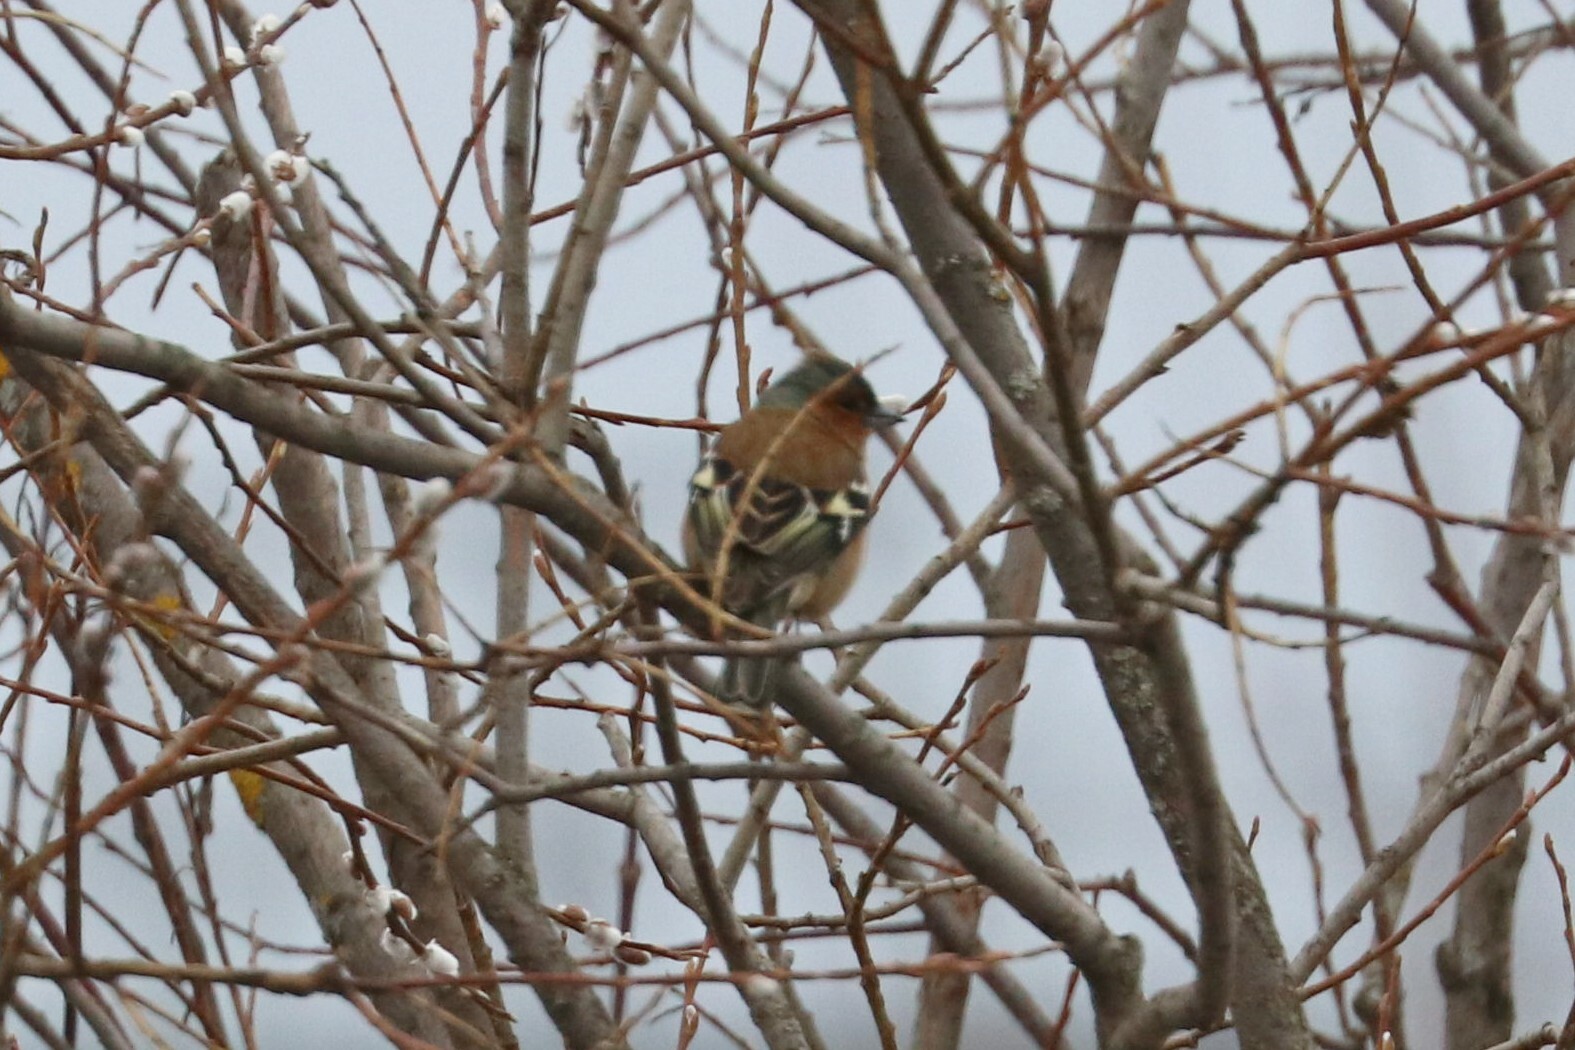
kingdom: Animalia
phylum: Chordata
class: Aves
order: Passeriformes
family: Fringillidae
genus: Fringilla
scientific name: Fringilla coelebs
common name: Common chaffinch
